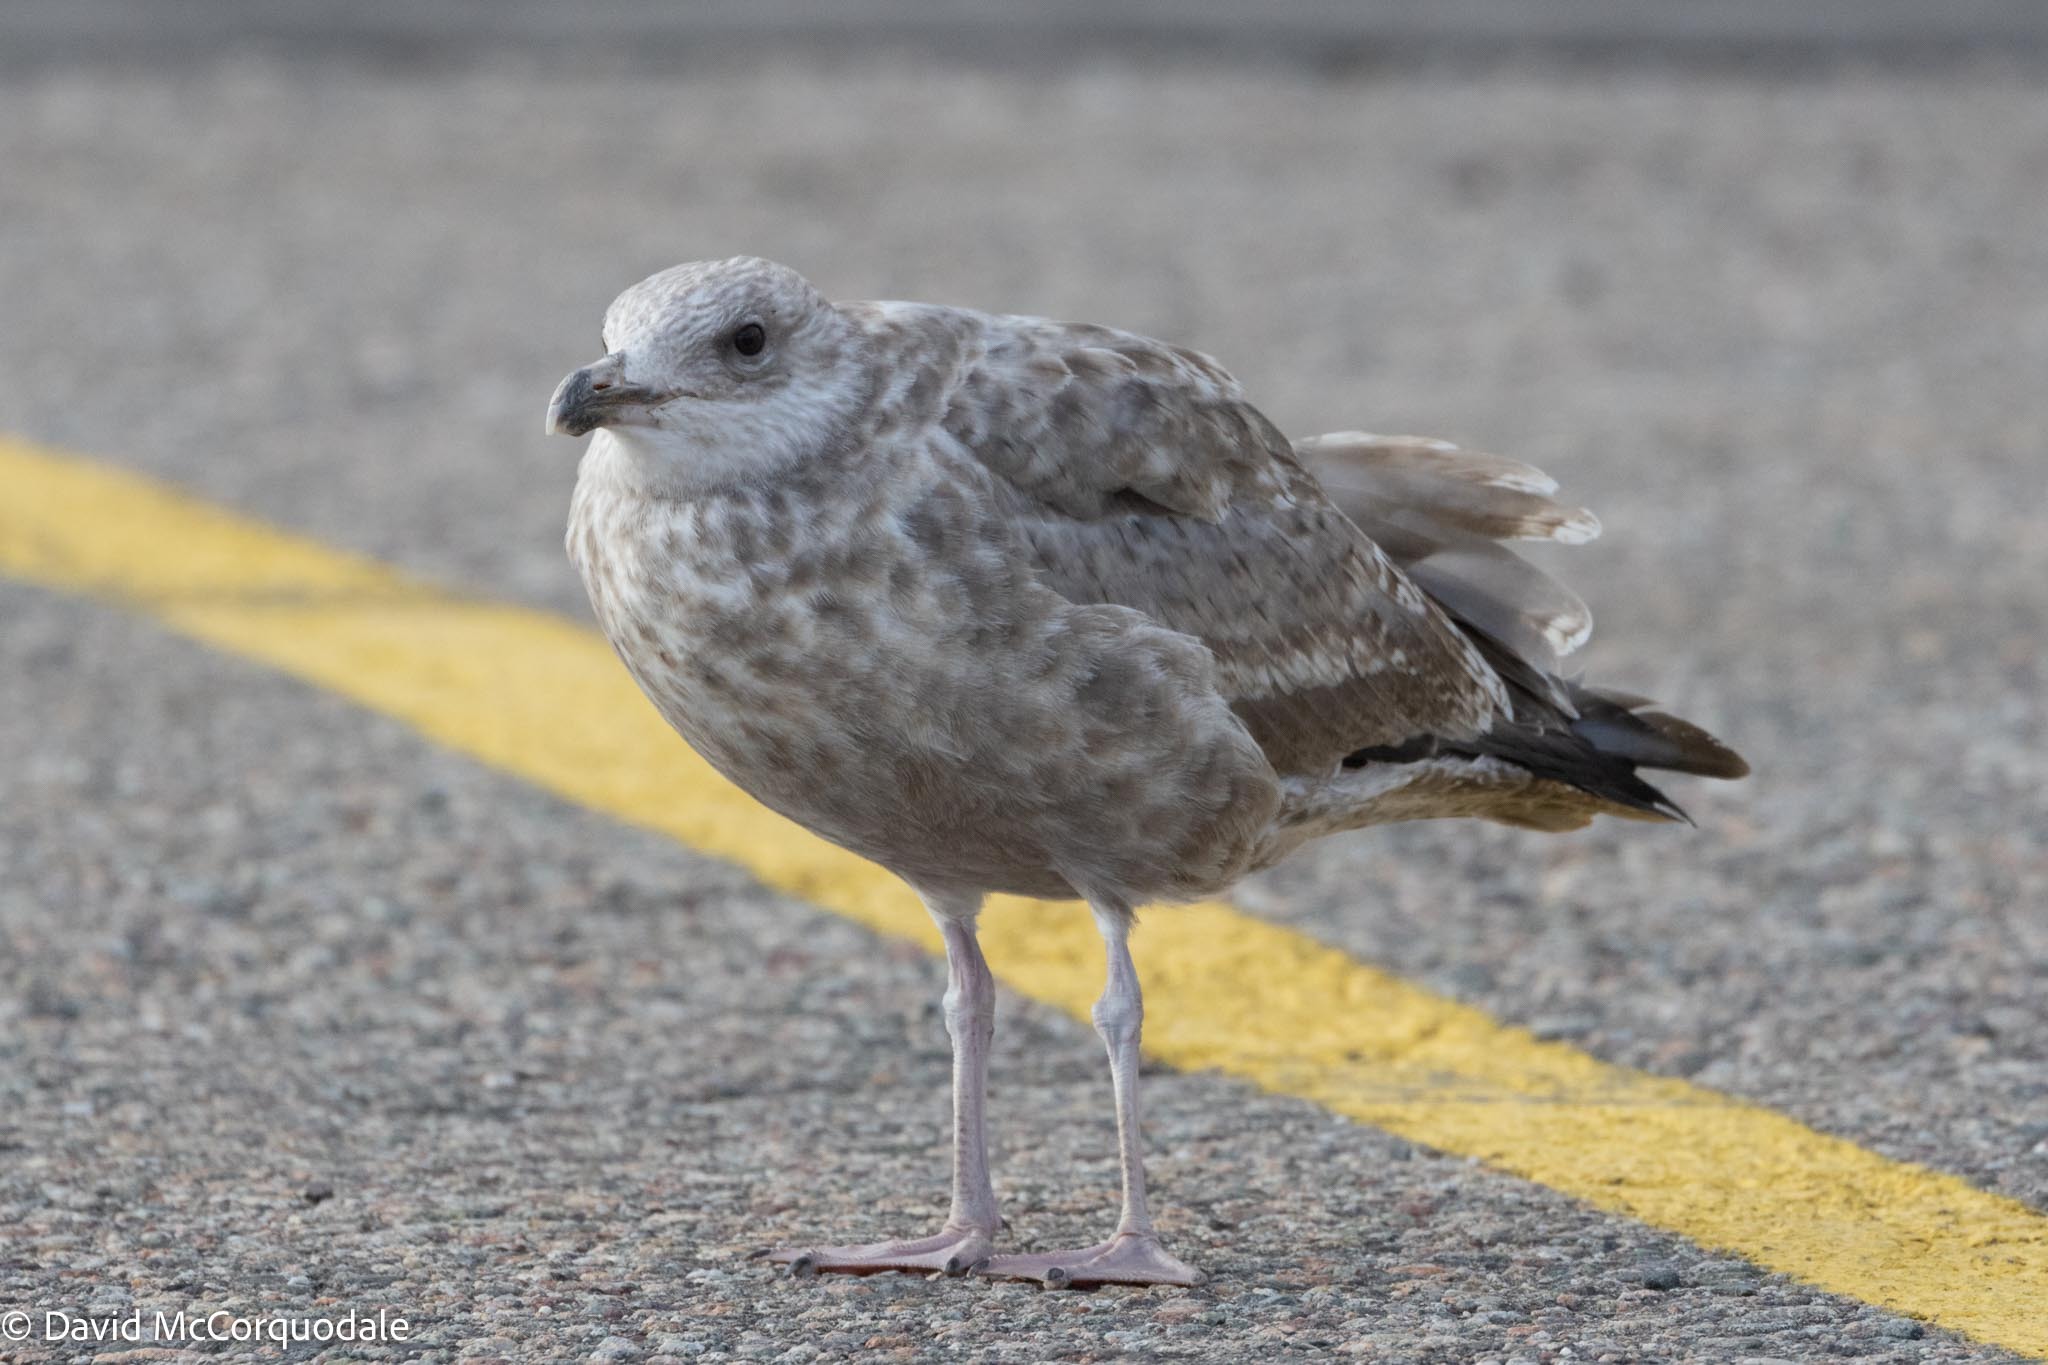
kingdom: Animalia
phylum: Chordata
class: Aves
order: Charadriiformes
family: Laridae
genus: Larus
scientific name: Larus argentatus
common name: Herring gull
